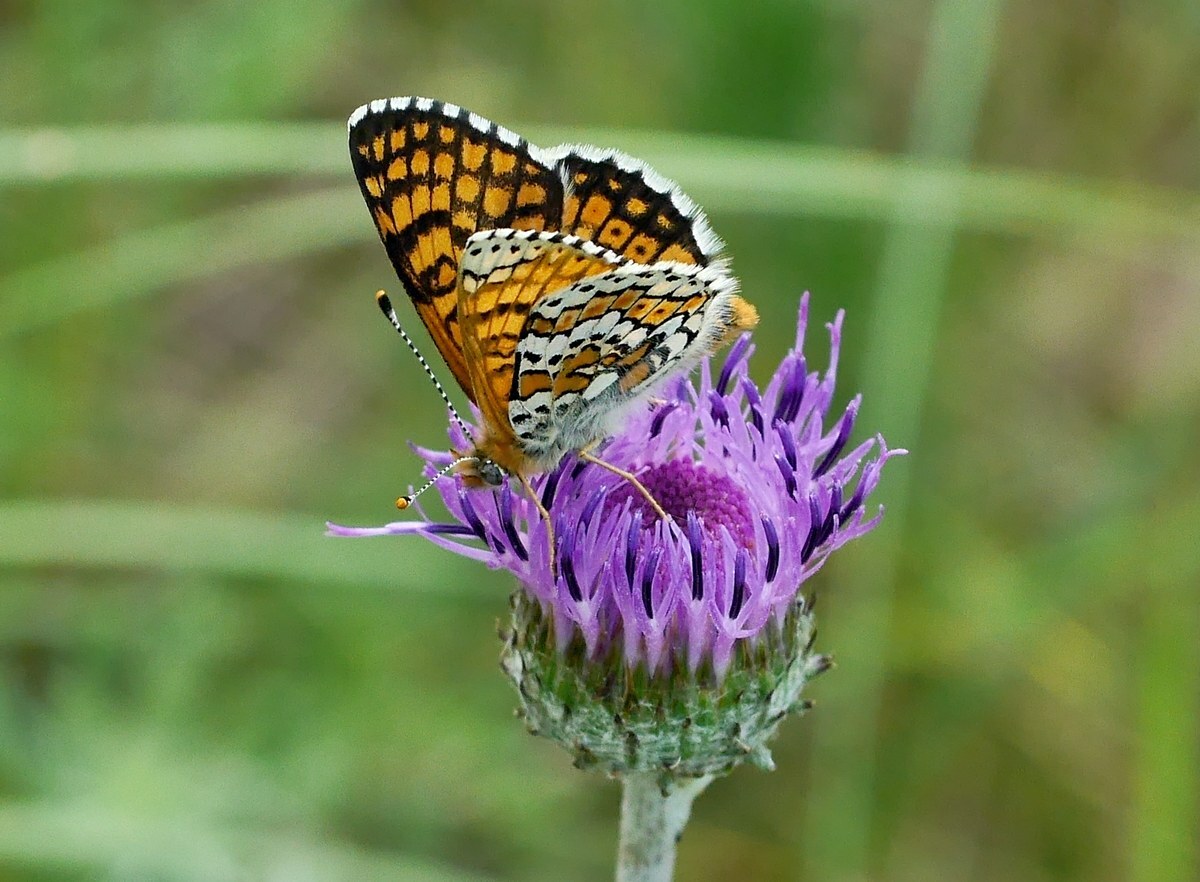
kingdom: Animalia
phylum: Arthropoda
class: Insecta
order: Lepidoptera
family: Nymphalidae
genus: Melitaea
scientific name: Melitaea cinxia
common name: Glanville fritillary
